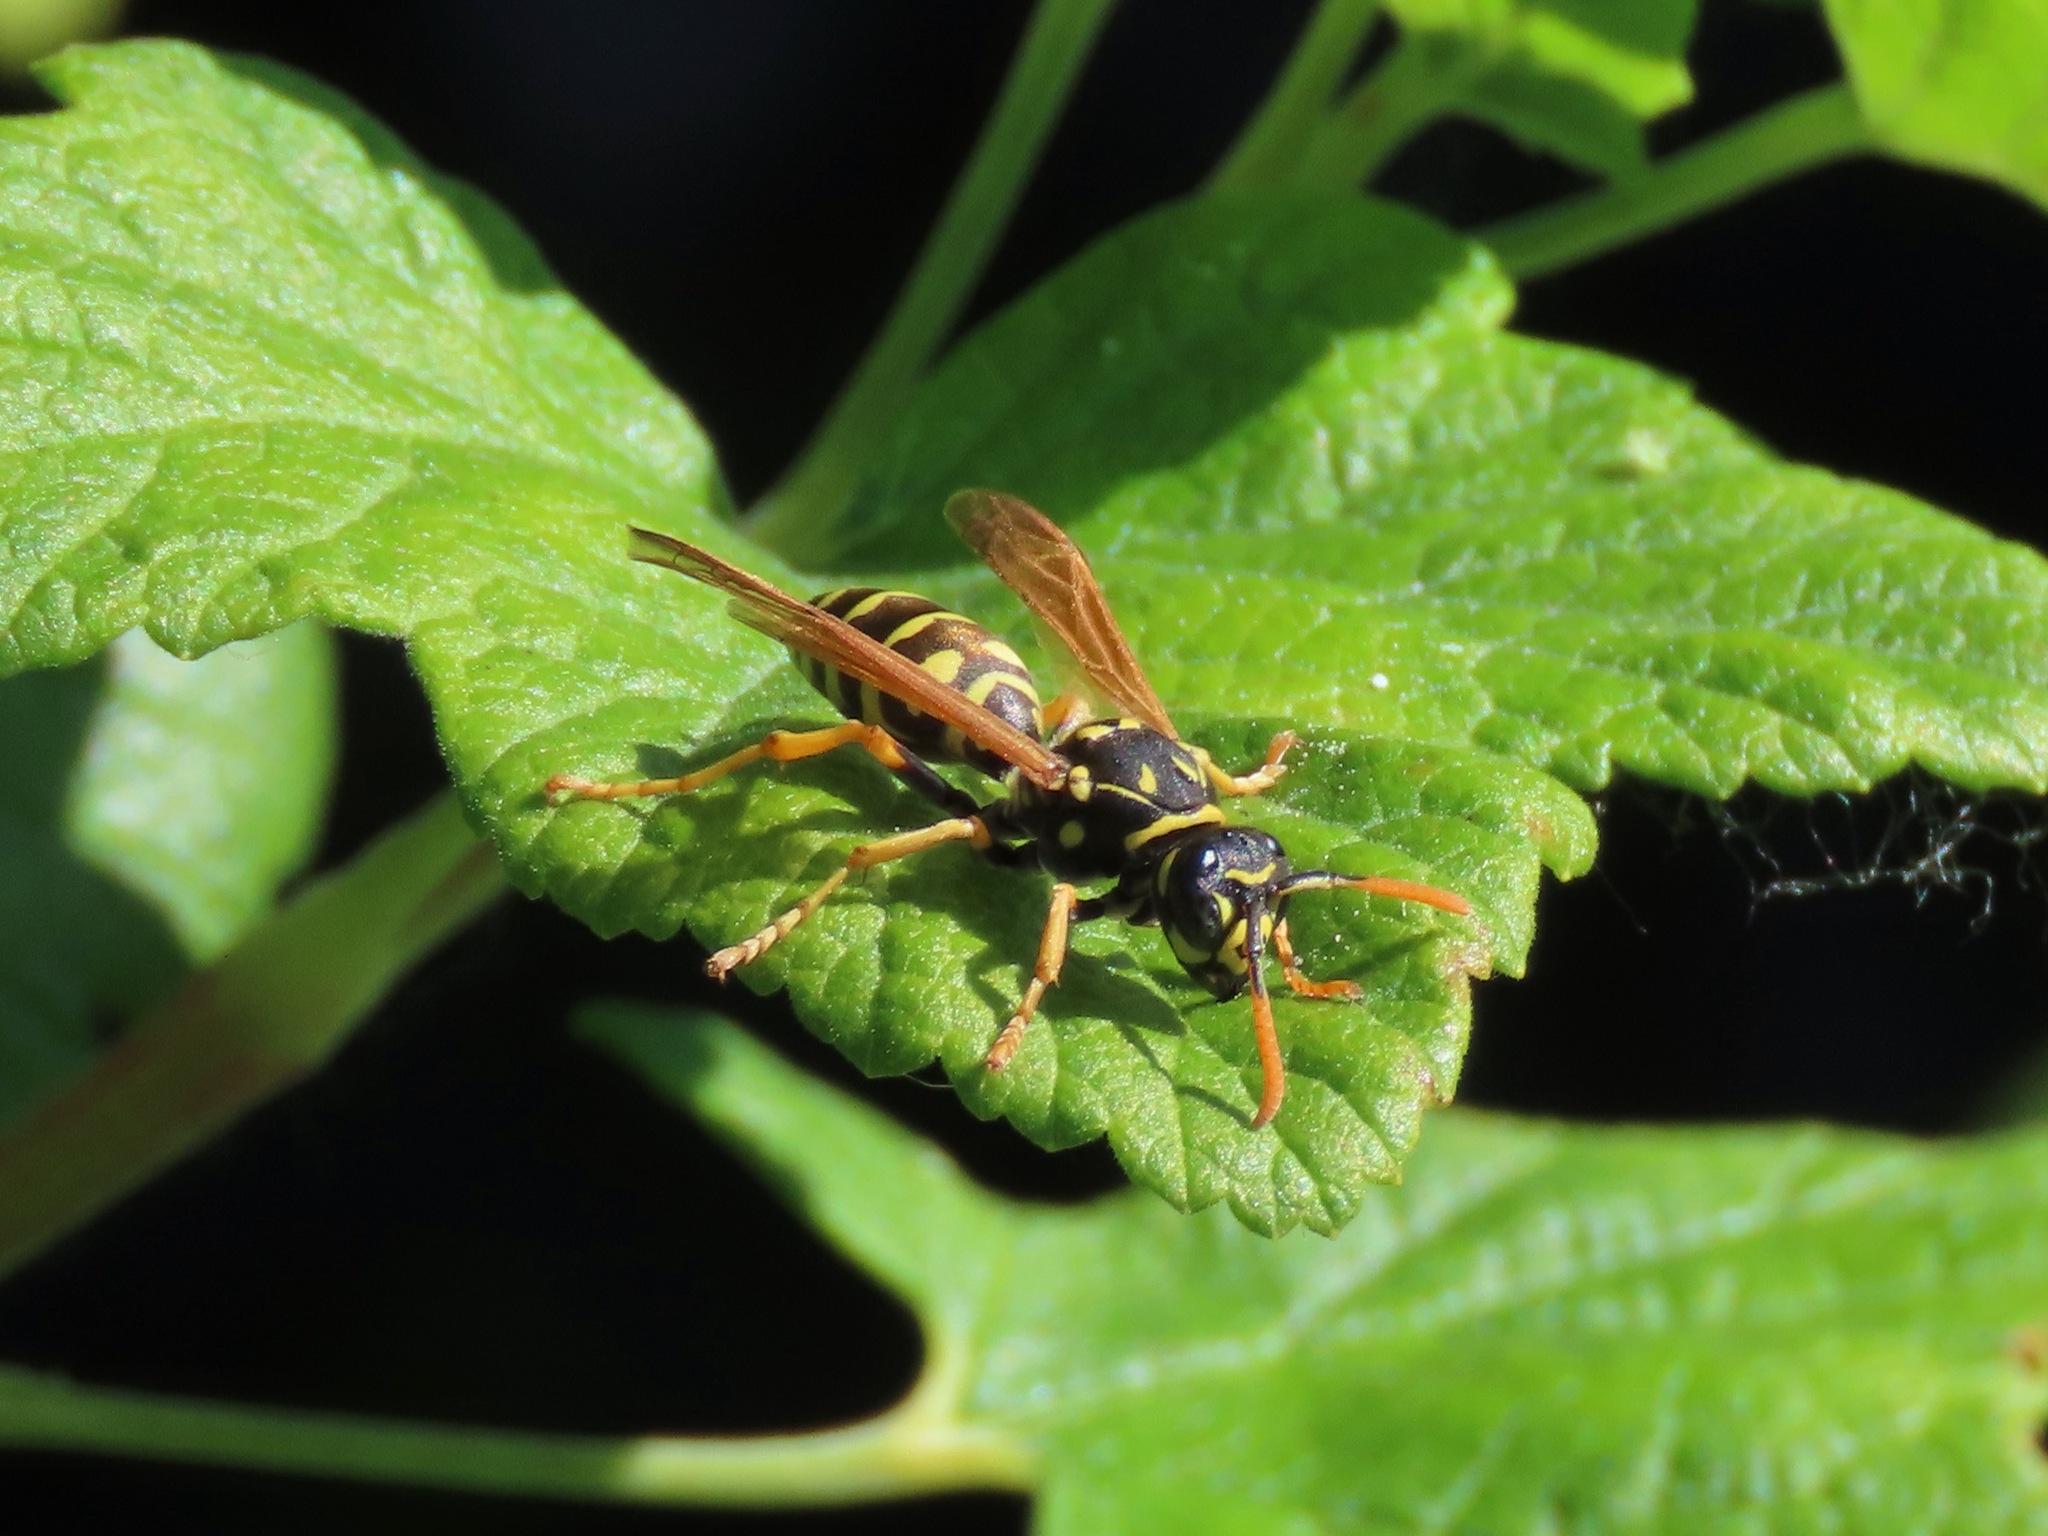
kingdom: Animalia
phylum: Arthropoda
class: Insecta
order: Hymenoptera
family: Eumenidae
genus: Polistes
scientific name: Polistes dominula
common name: Paper wasp
